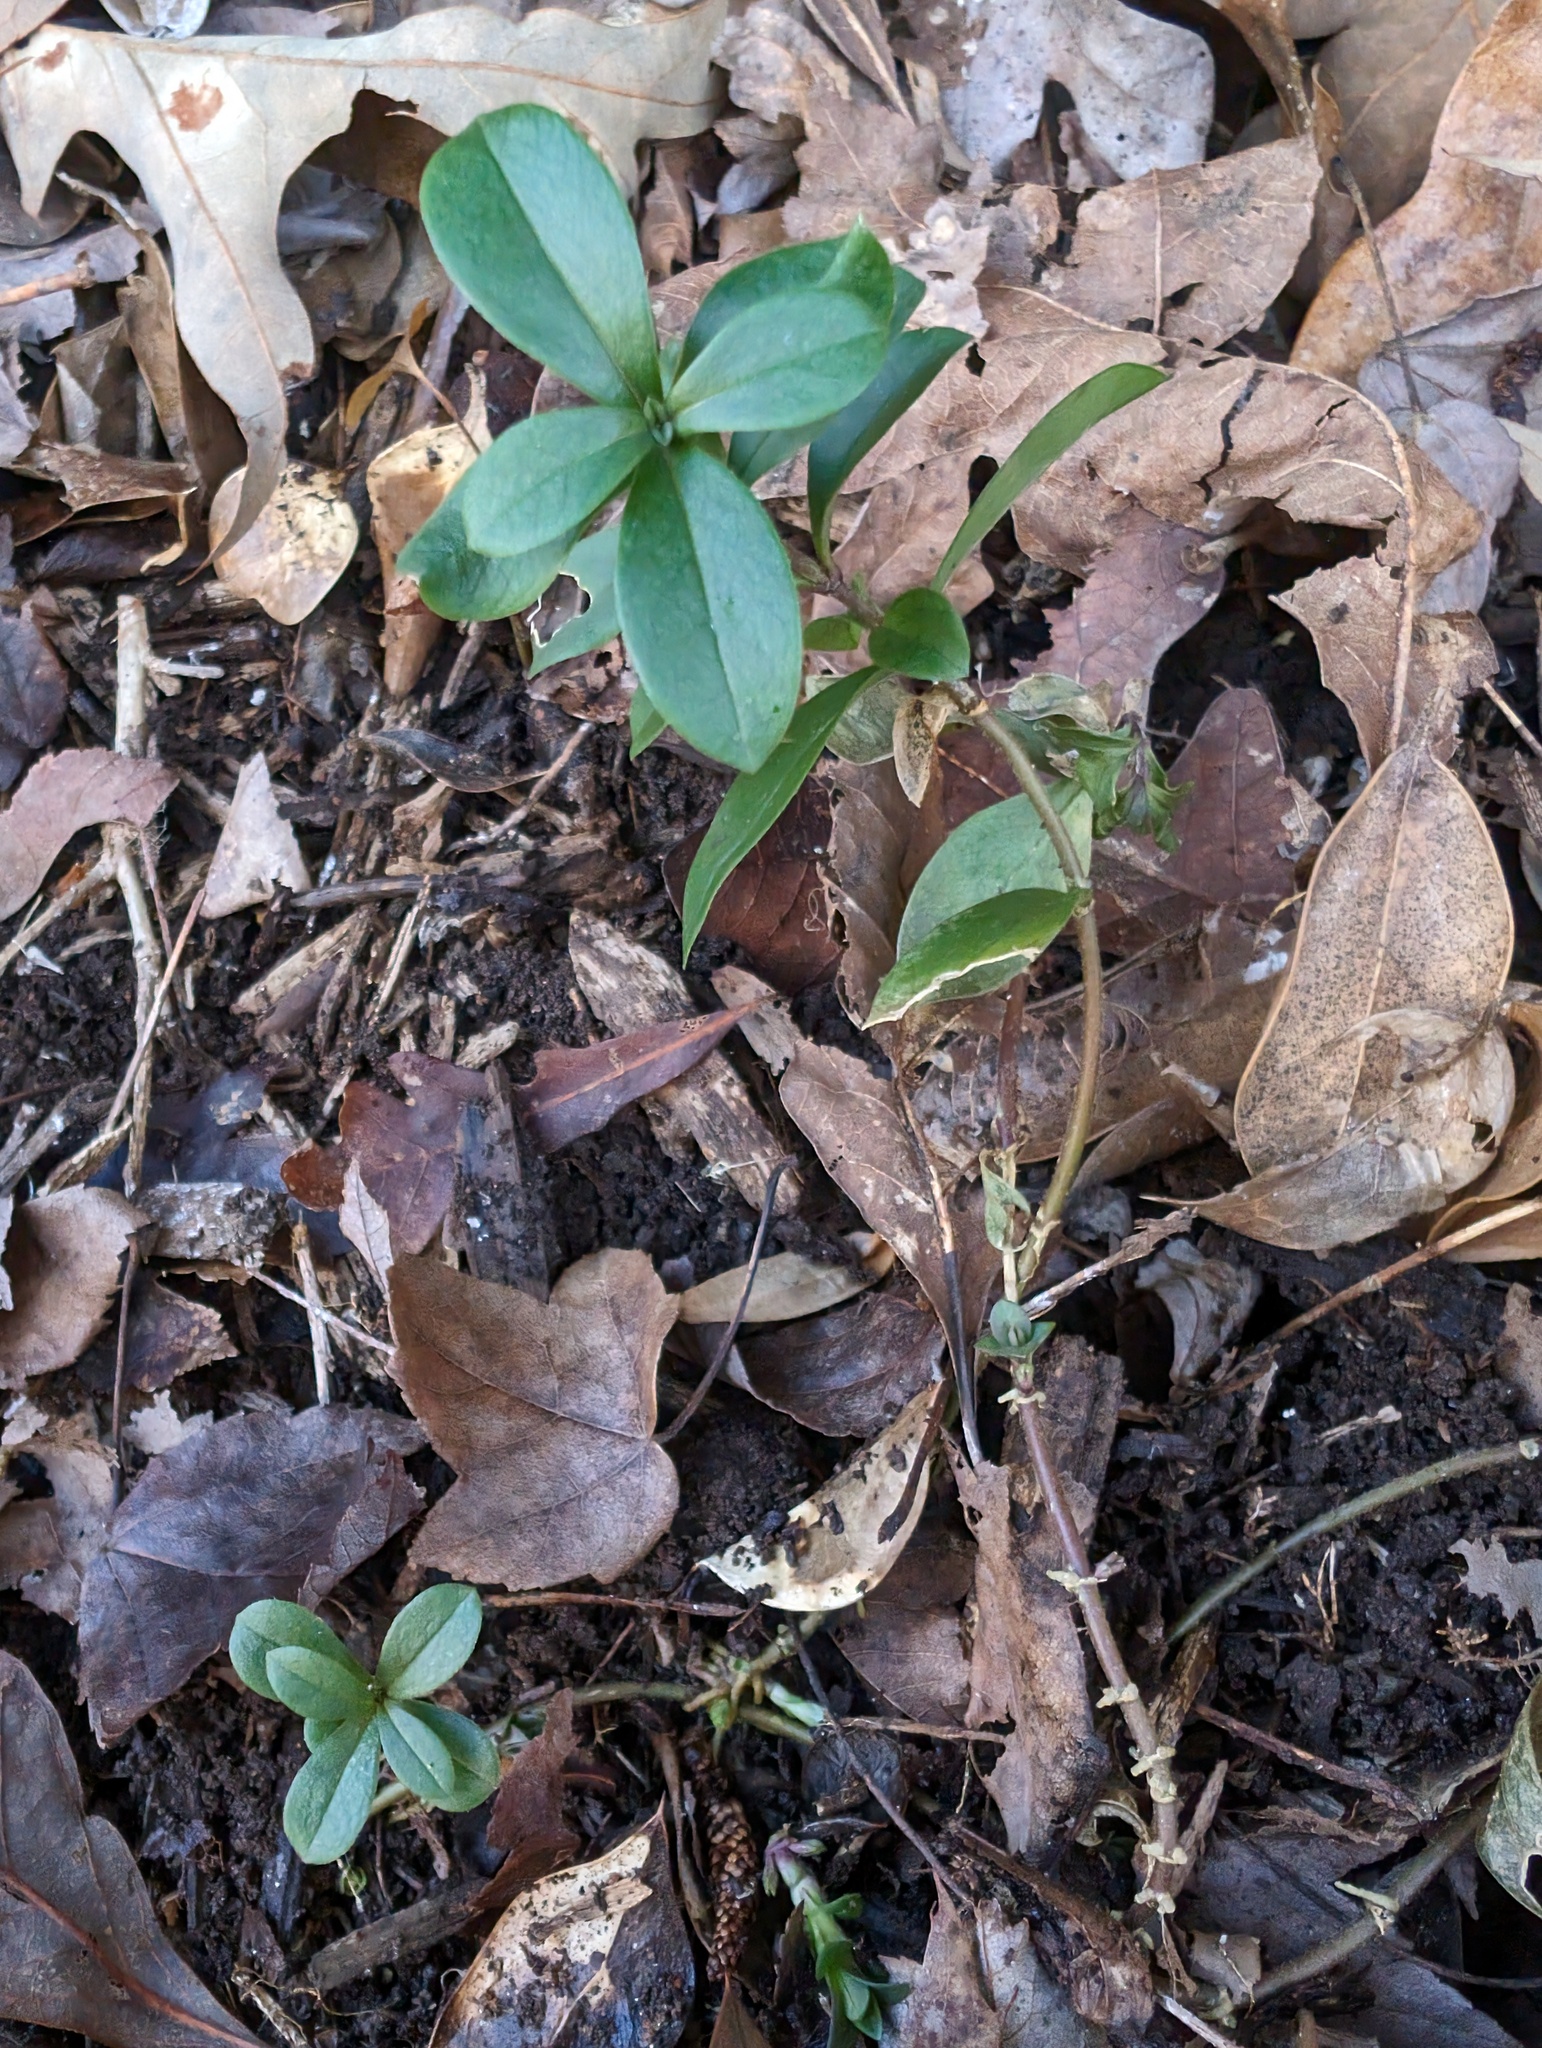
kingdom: Plantae
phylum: Tracheophyta
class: Magnoliopsida
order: Ericales
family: Polemoniaceae
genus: Phlox
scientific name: Phlox divaricata
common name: Blue phlox
